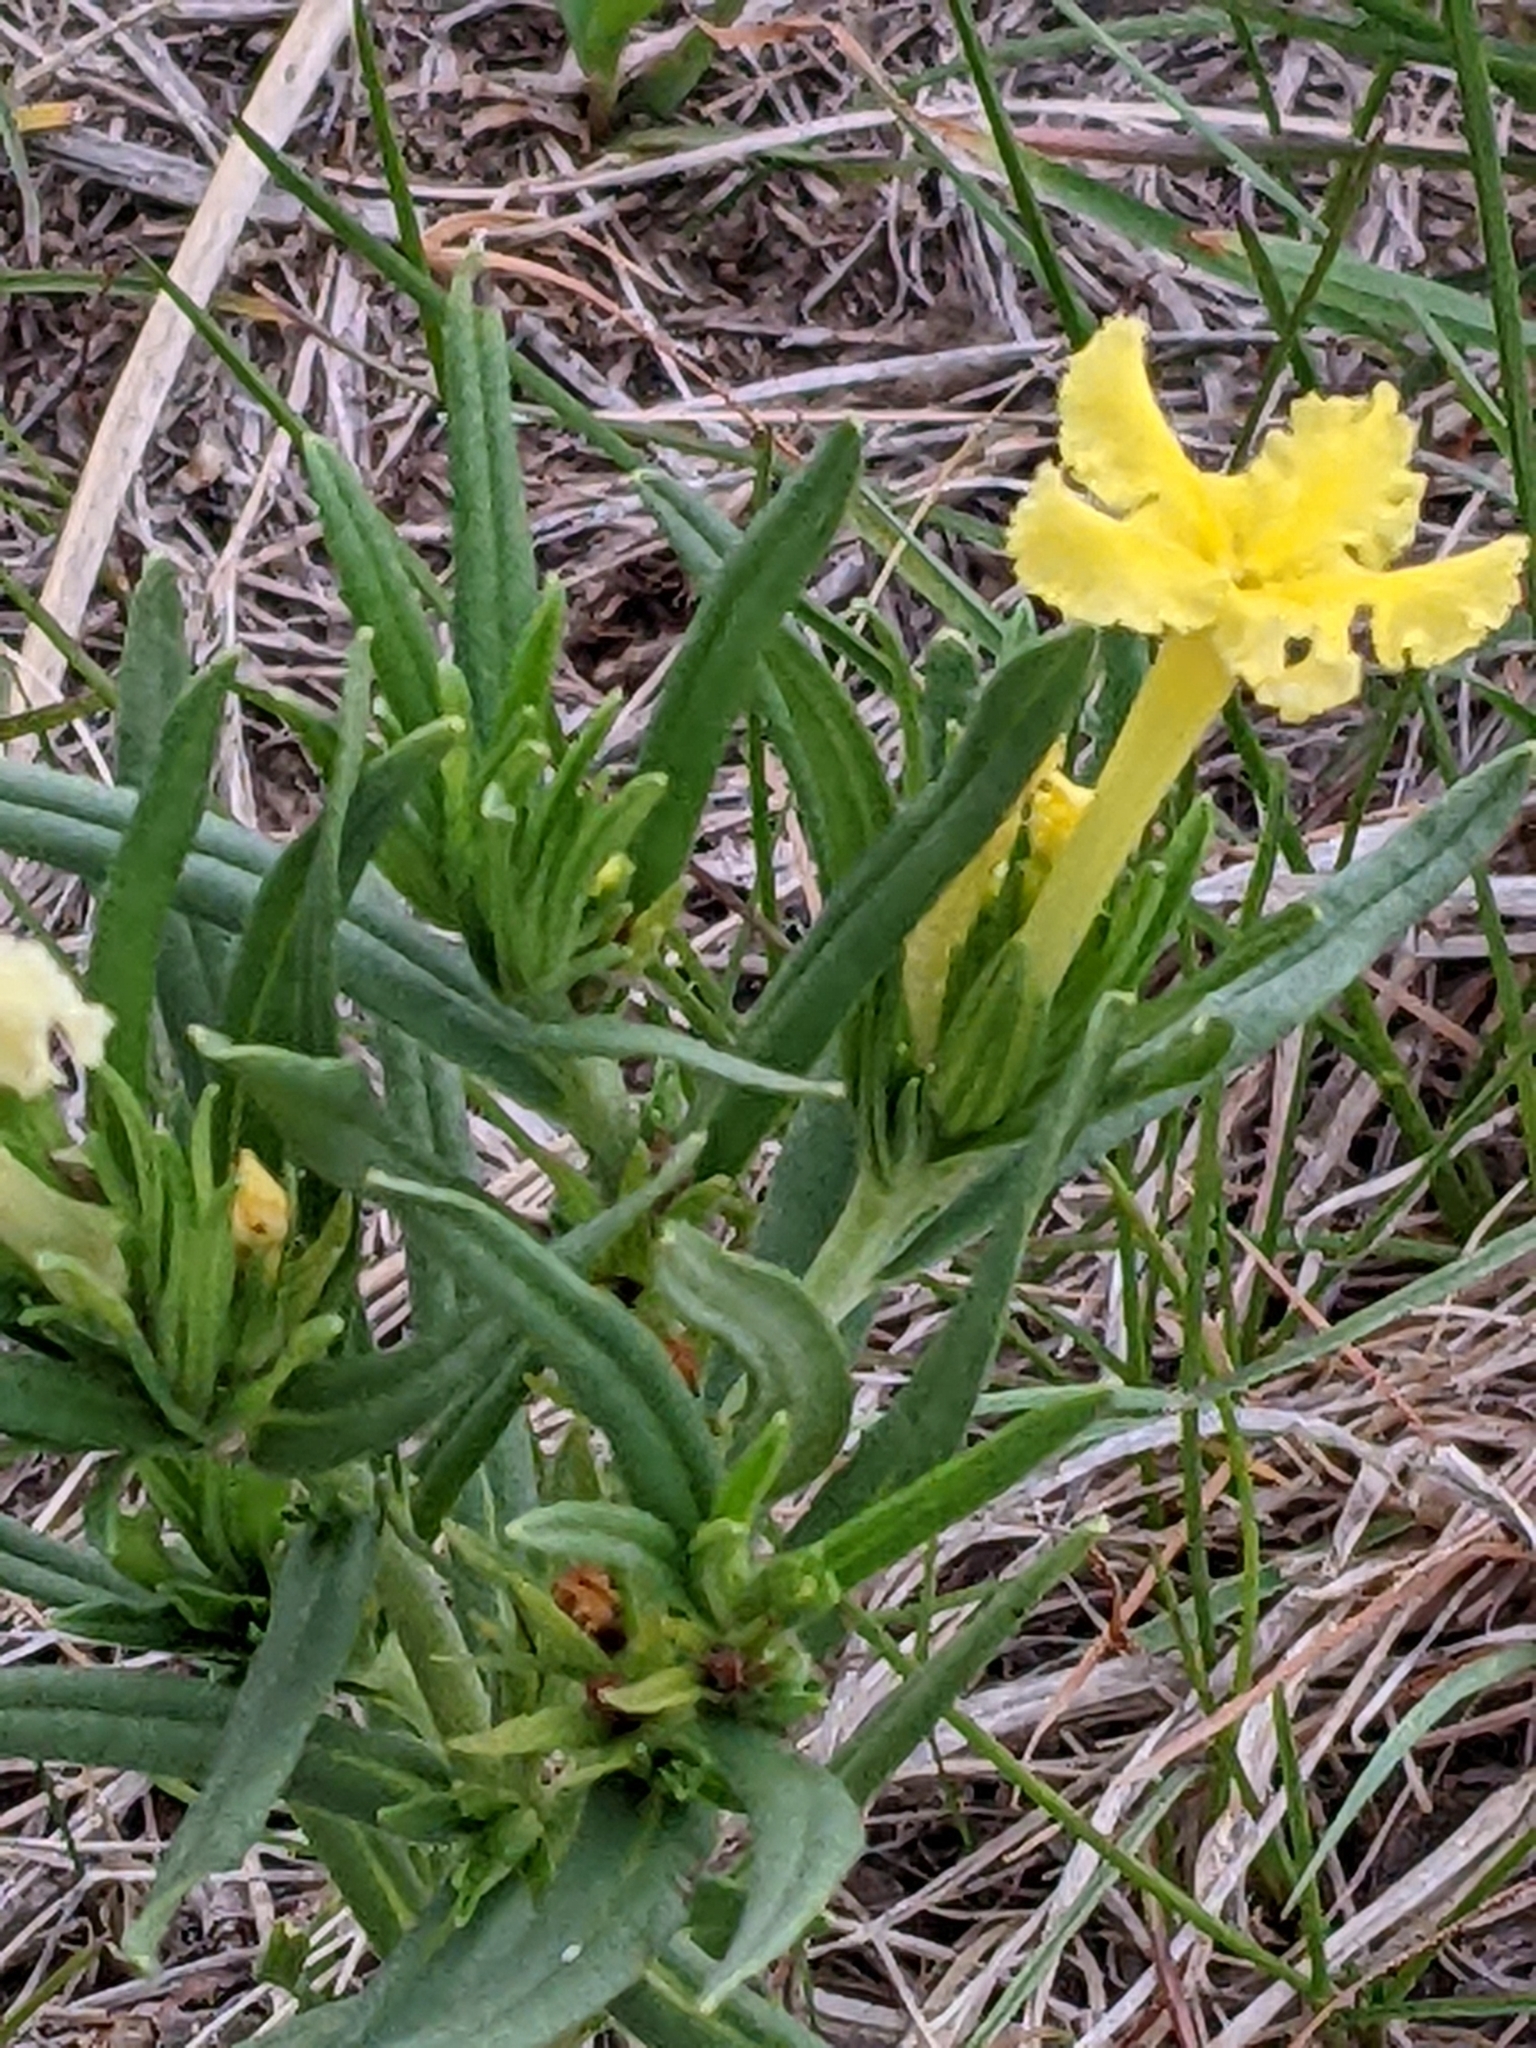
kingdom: Plantae
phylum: Tracheophyta
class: Magnoliopsida
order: Boraginales
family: Boraginaceae
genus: Lithospermum
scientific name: Lithospermum incisum
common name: Fringed gromwell
